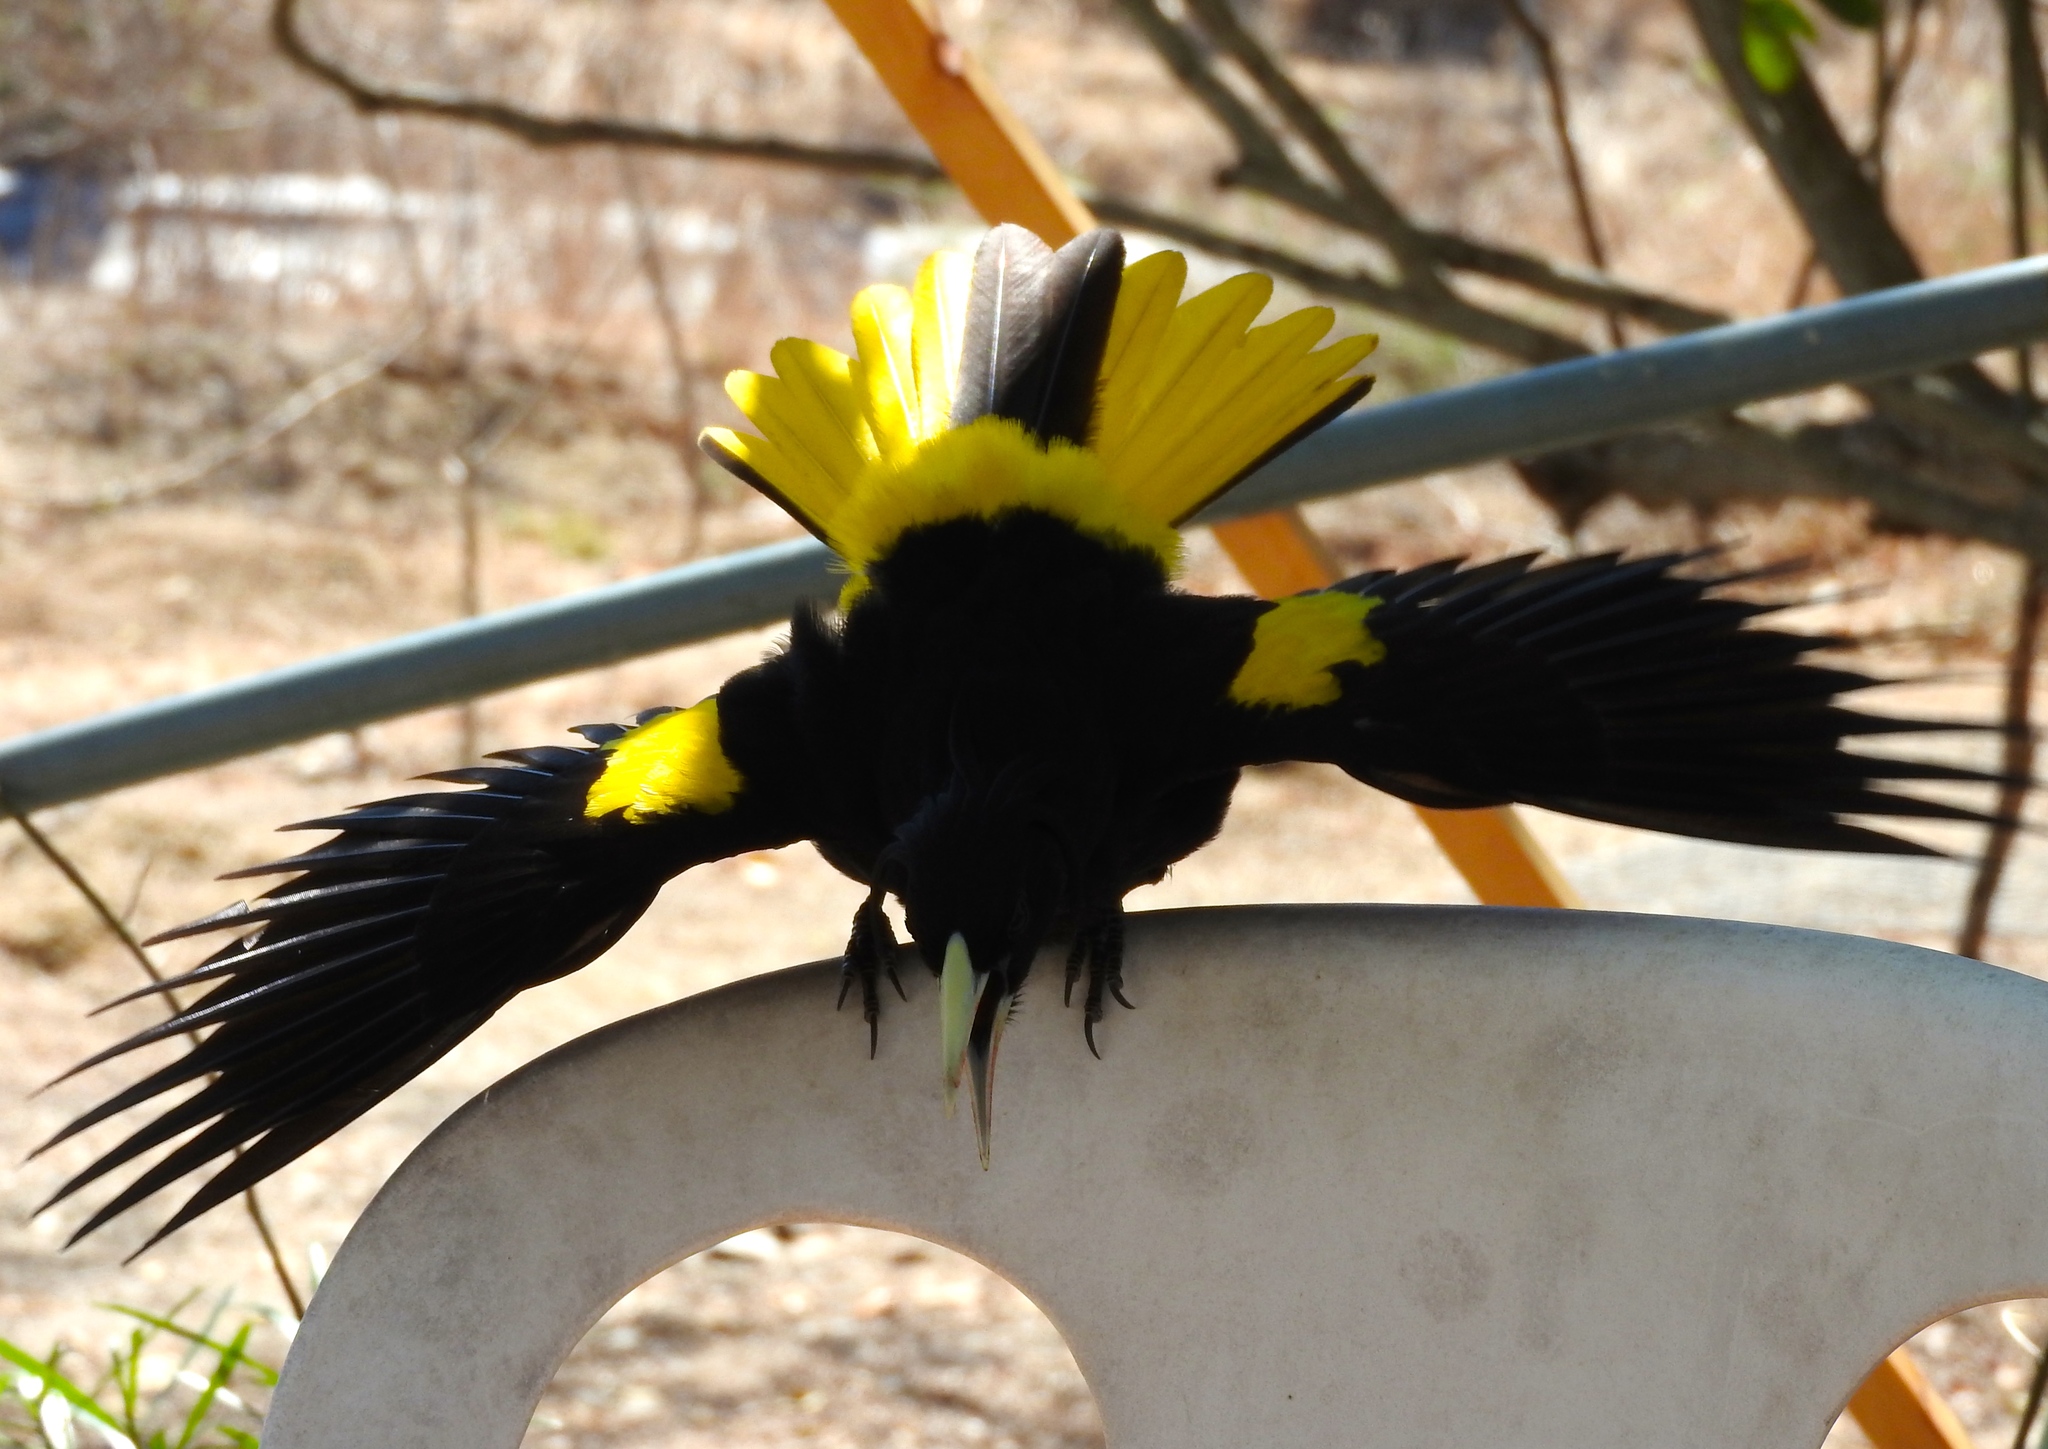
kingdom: Animalia
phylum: Chordata
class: Aves
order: Passeriformes
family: Icteridae
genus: Cacicus
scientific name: Cacicus melanicterus
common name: Yellow-winged cacique
